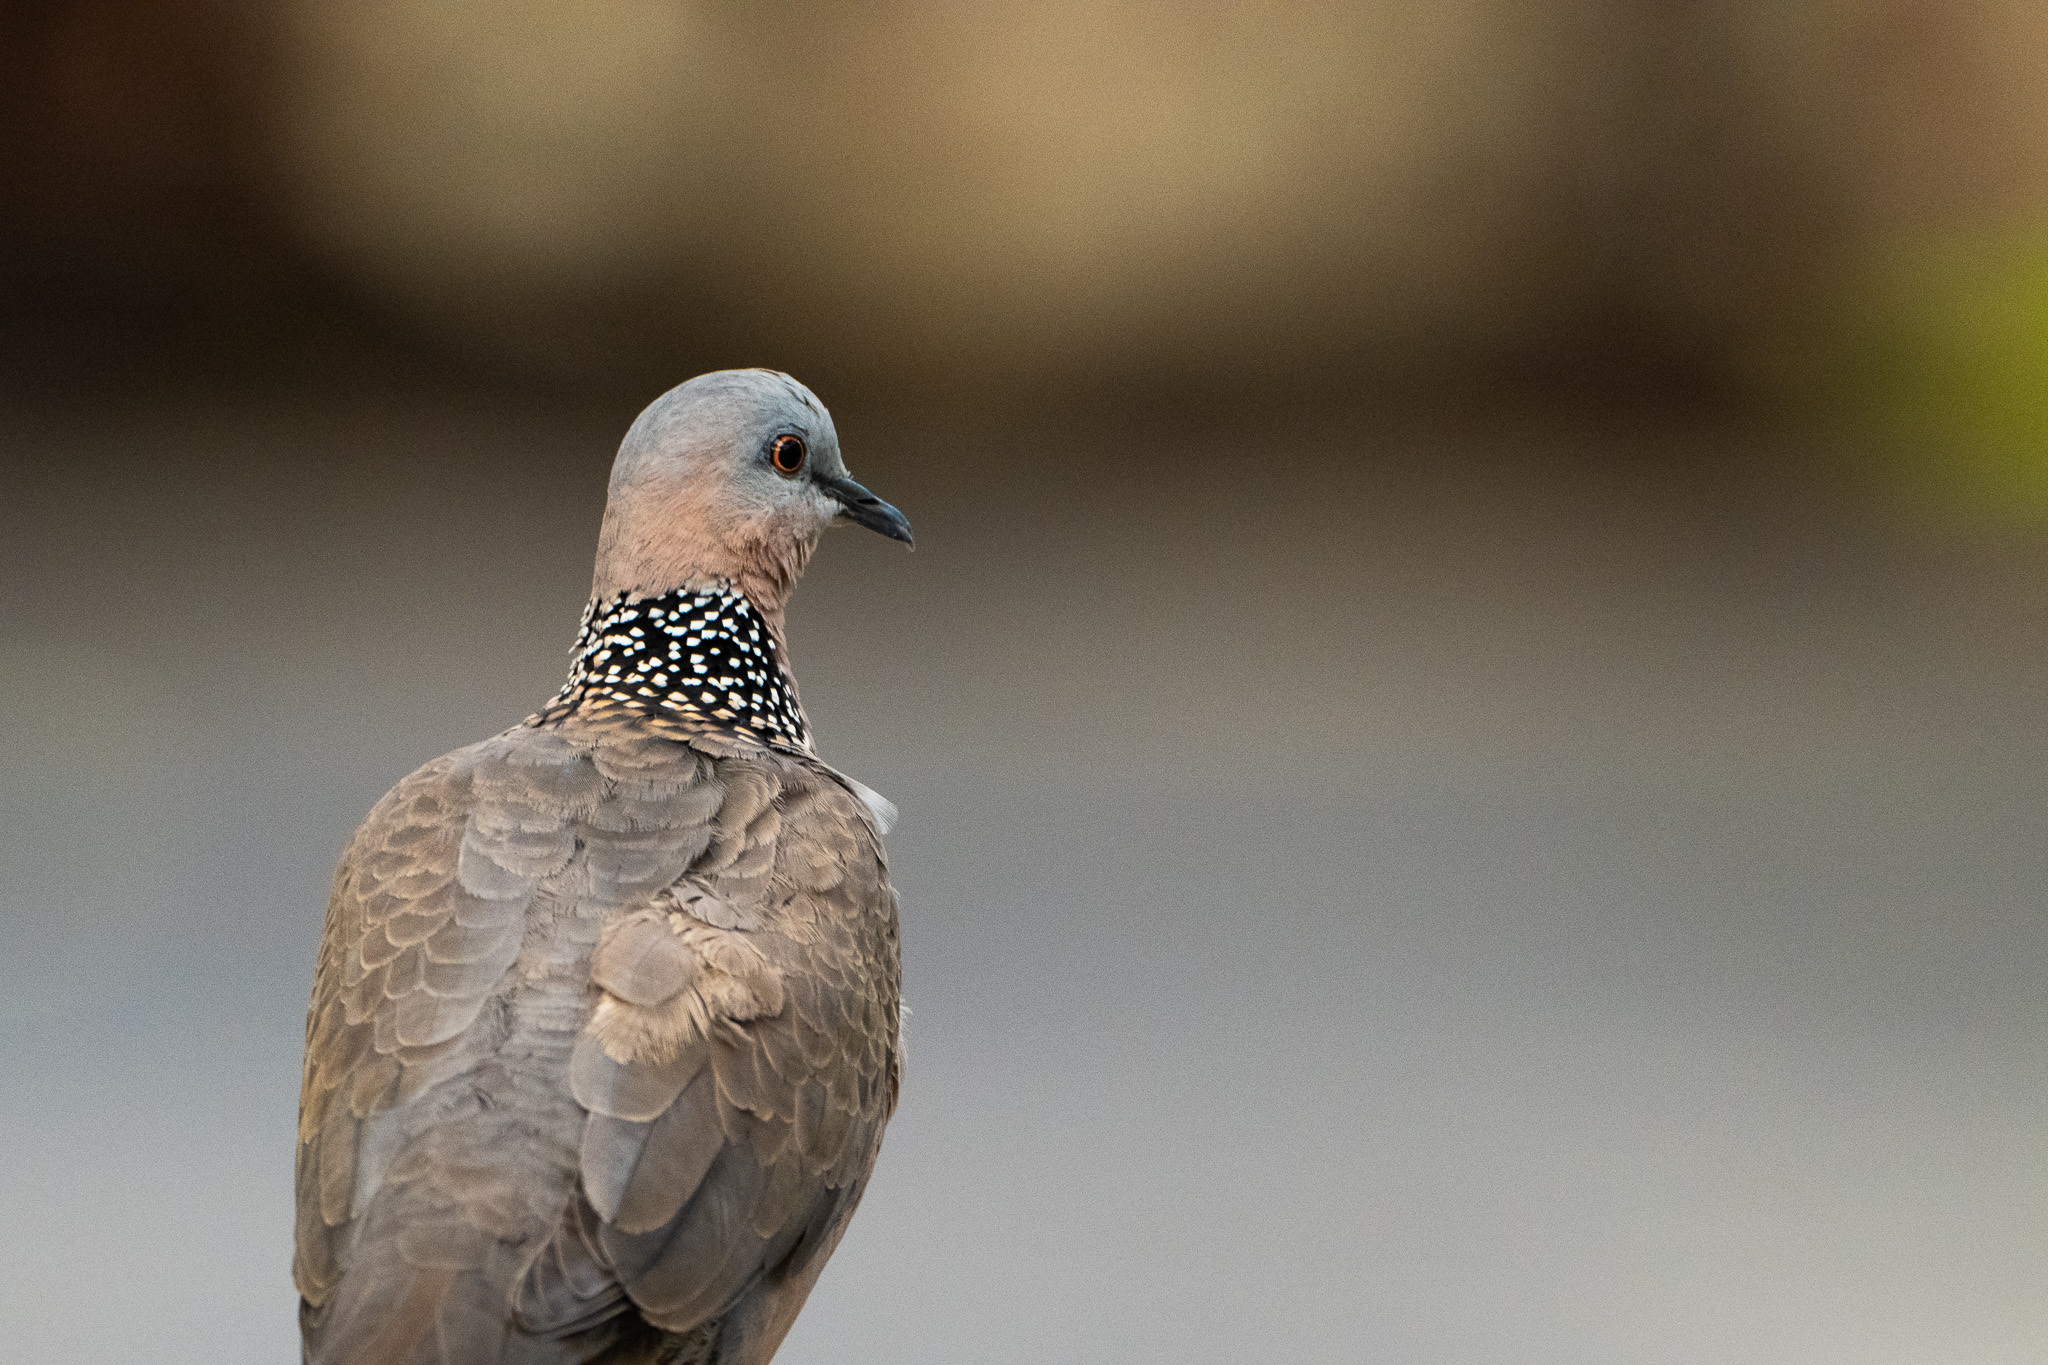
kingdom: Animalia
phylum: Chordata
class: Aves
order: Columbiformes
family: Columbidae
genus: Spilopelia
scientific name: Spilopelia chinensis
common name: Spotted dove
